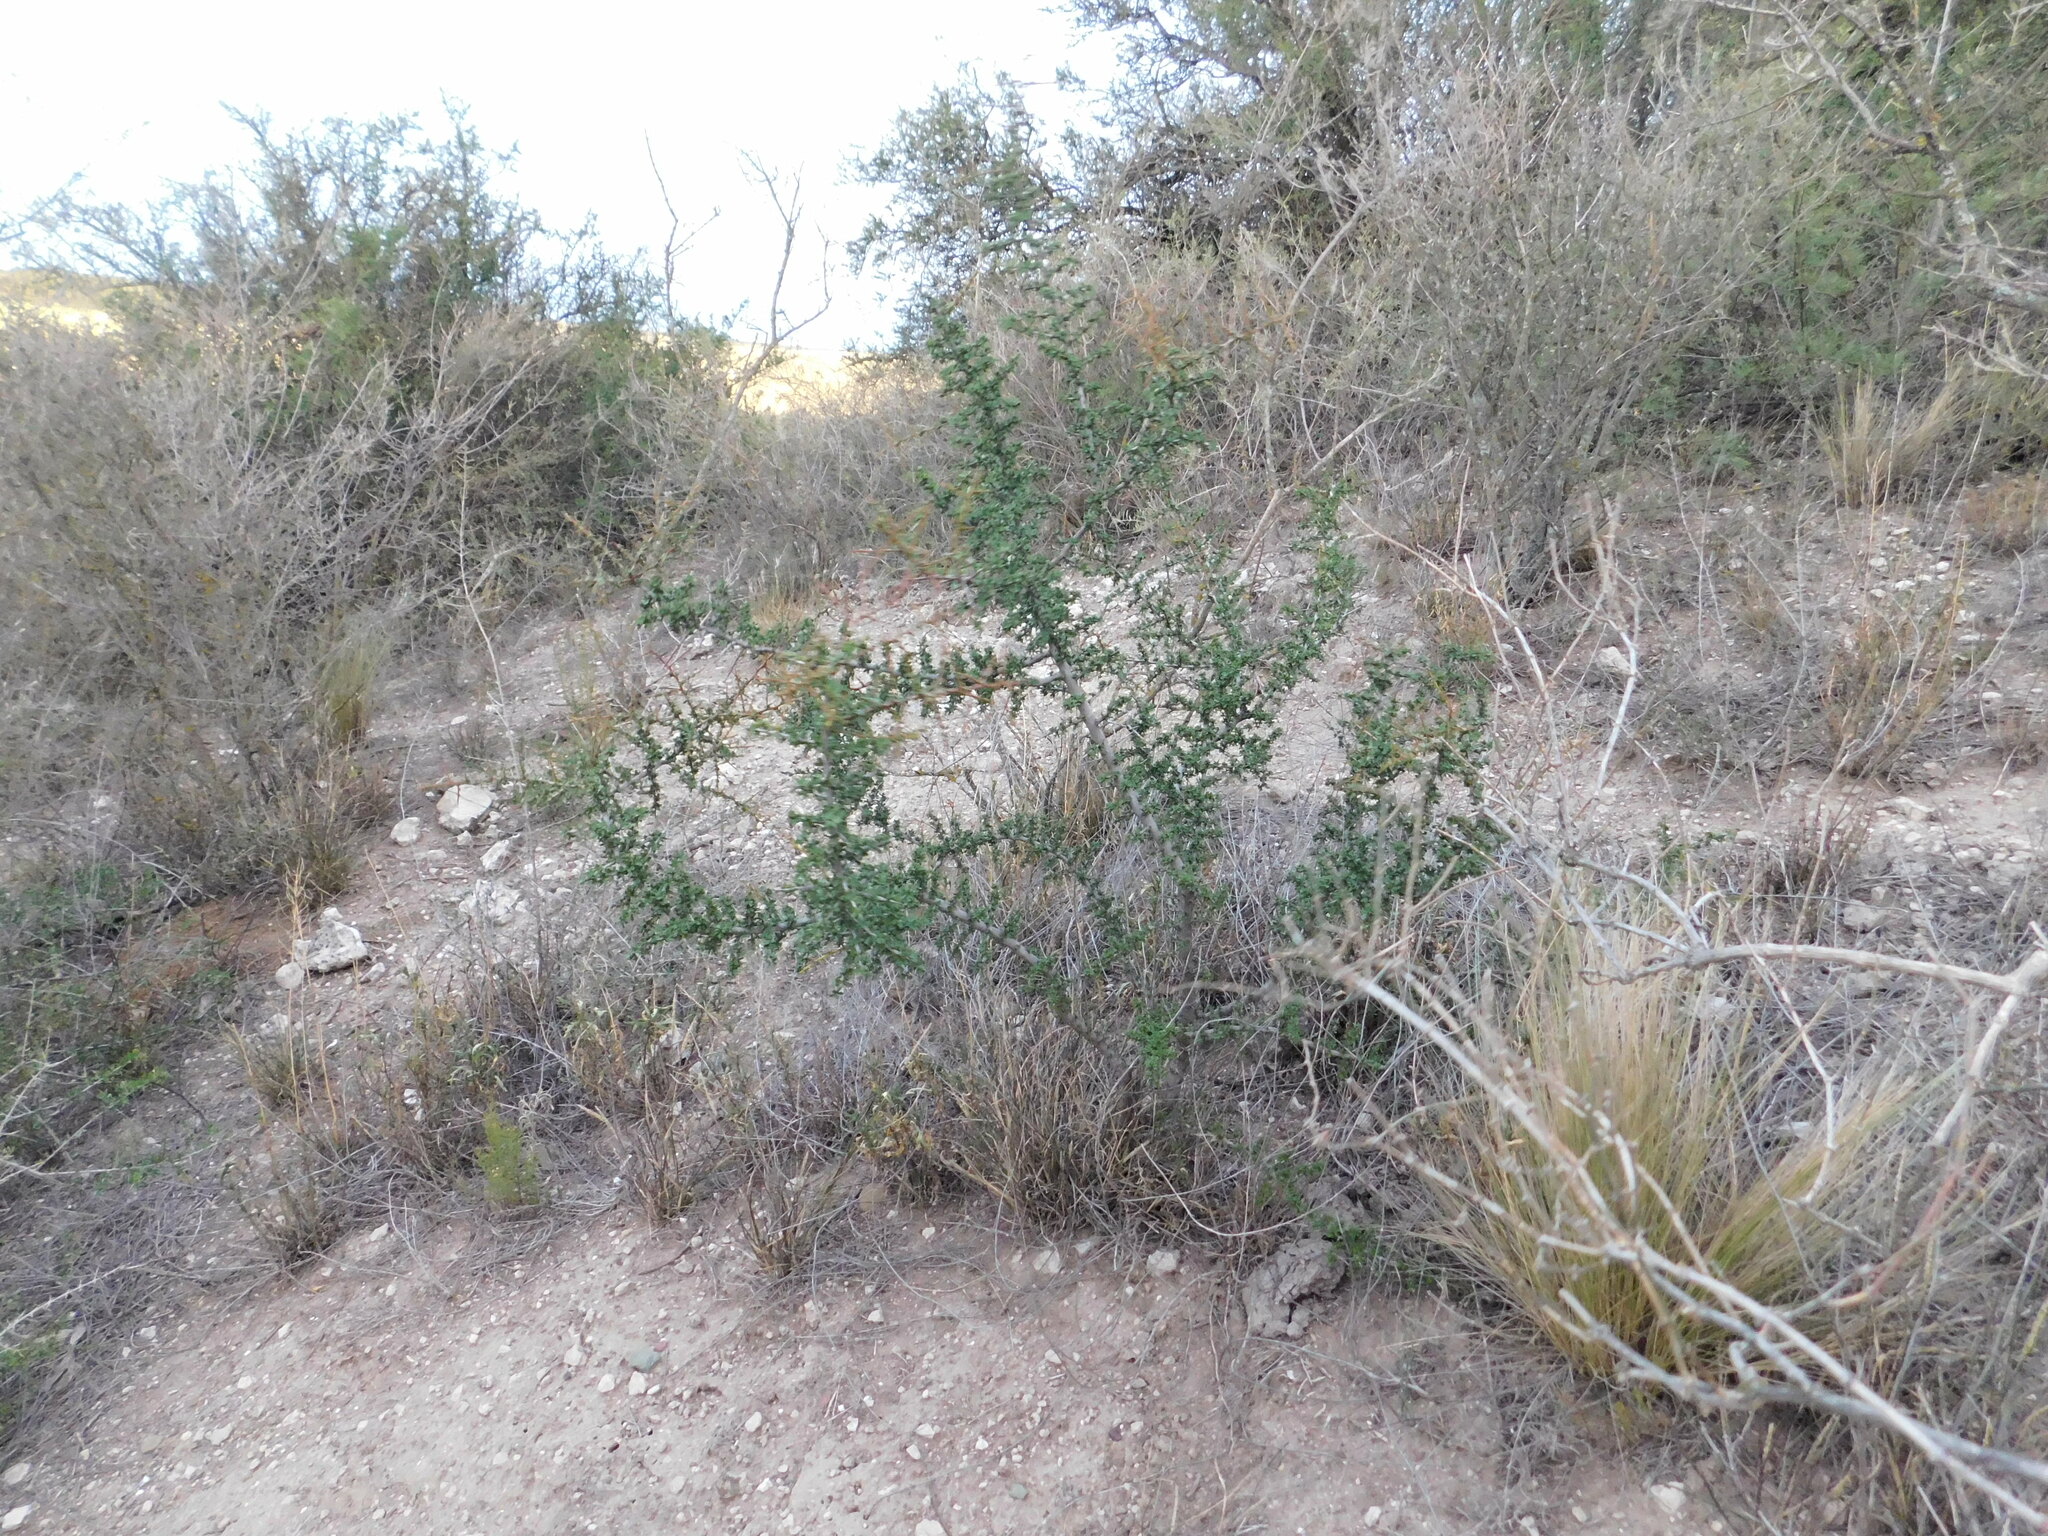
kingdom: Plantae
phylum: Tracheophyta
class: Magnoliopsida
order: Rosales
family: Rhamnaceae
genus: Condalia
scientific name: Condalia microphylla
